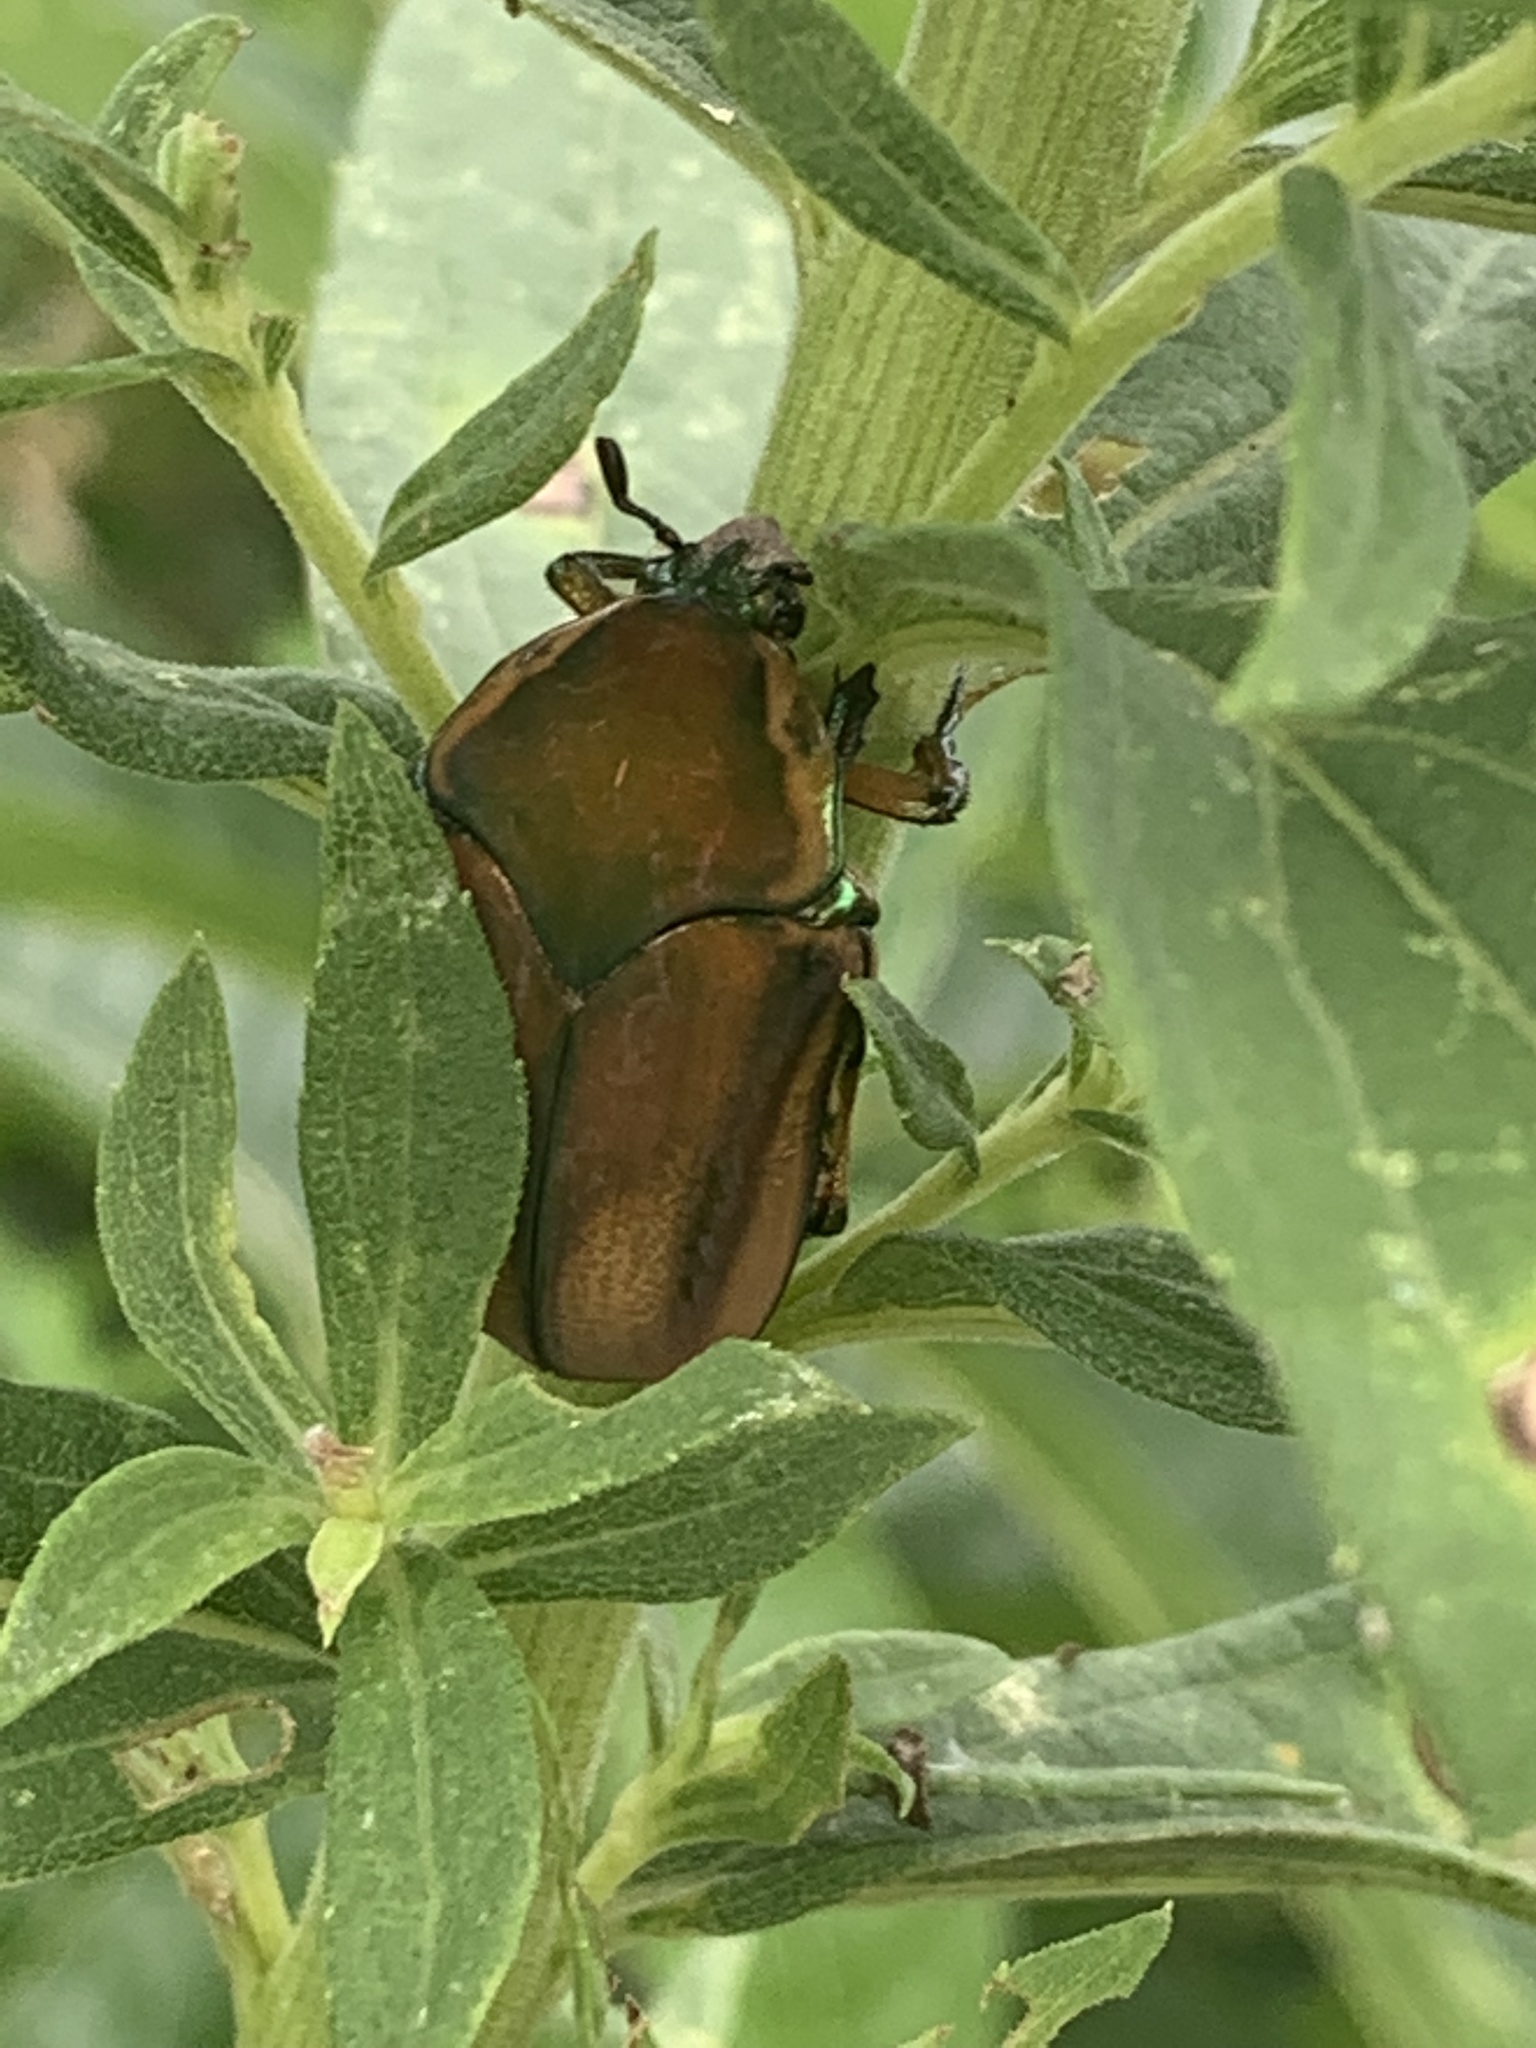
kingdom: Animalia
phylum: Arthropoda
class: Insecta
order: Coleoptera
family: Scarabaeidae
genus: Cotinis
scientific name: Cotinis nitida
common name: Common green june beetle
